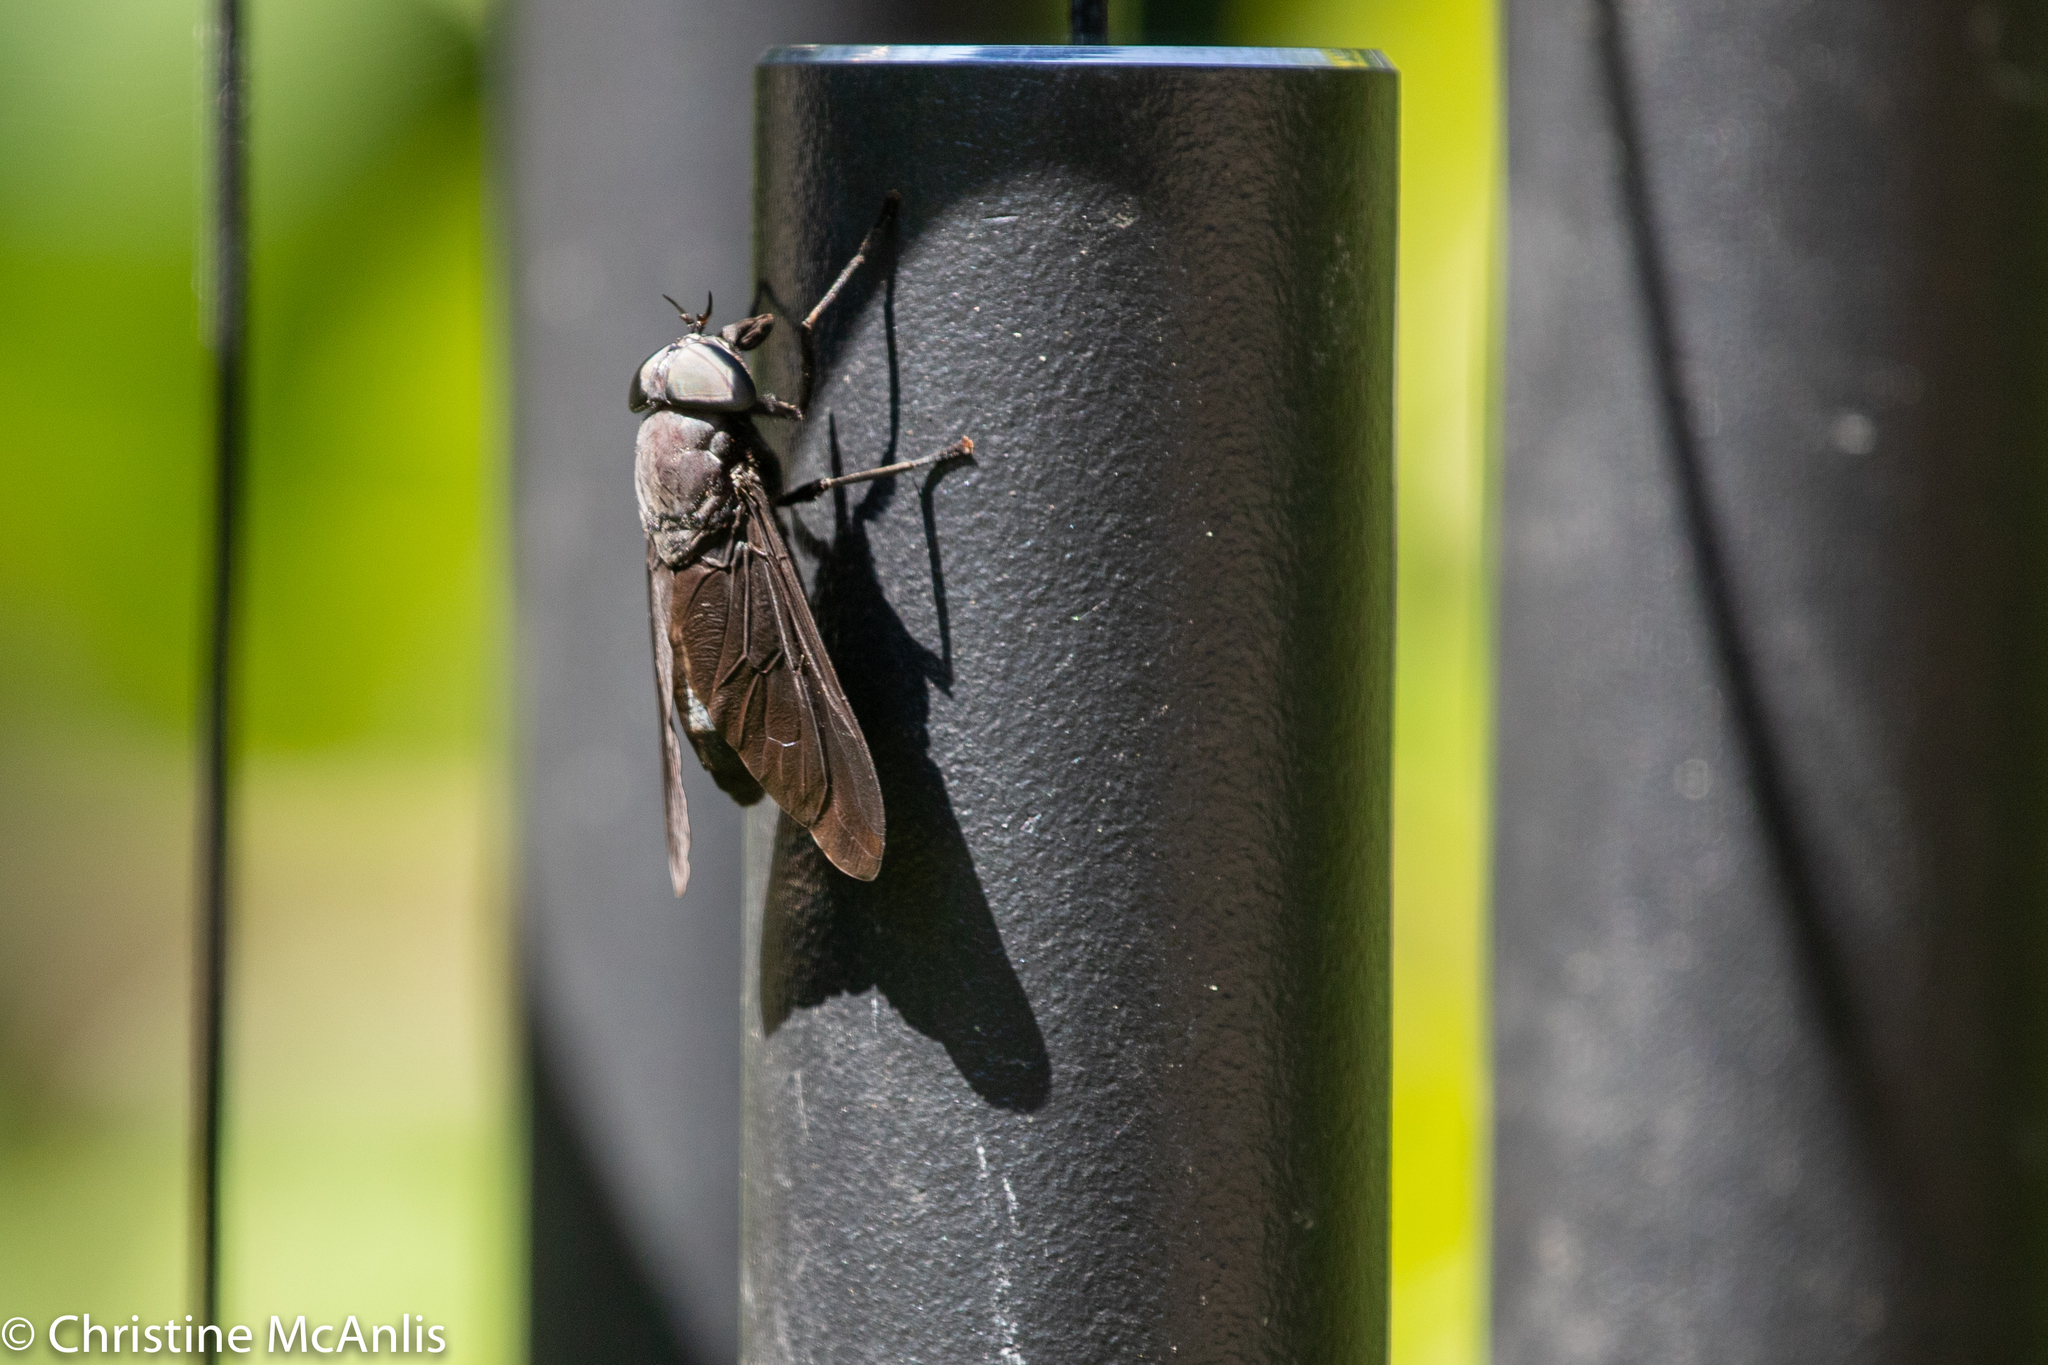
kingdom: Animalia
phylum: Arthropoda
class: Insecta
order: Diptera
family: Tabanidae
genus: Tabanus
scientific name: Tabanus atratus
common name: Black horse fly
